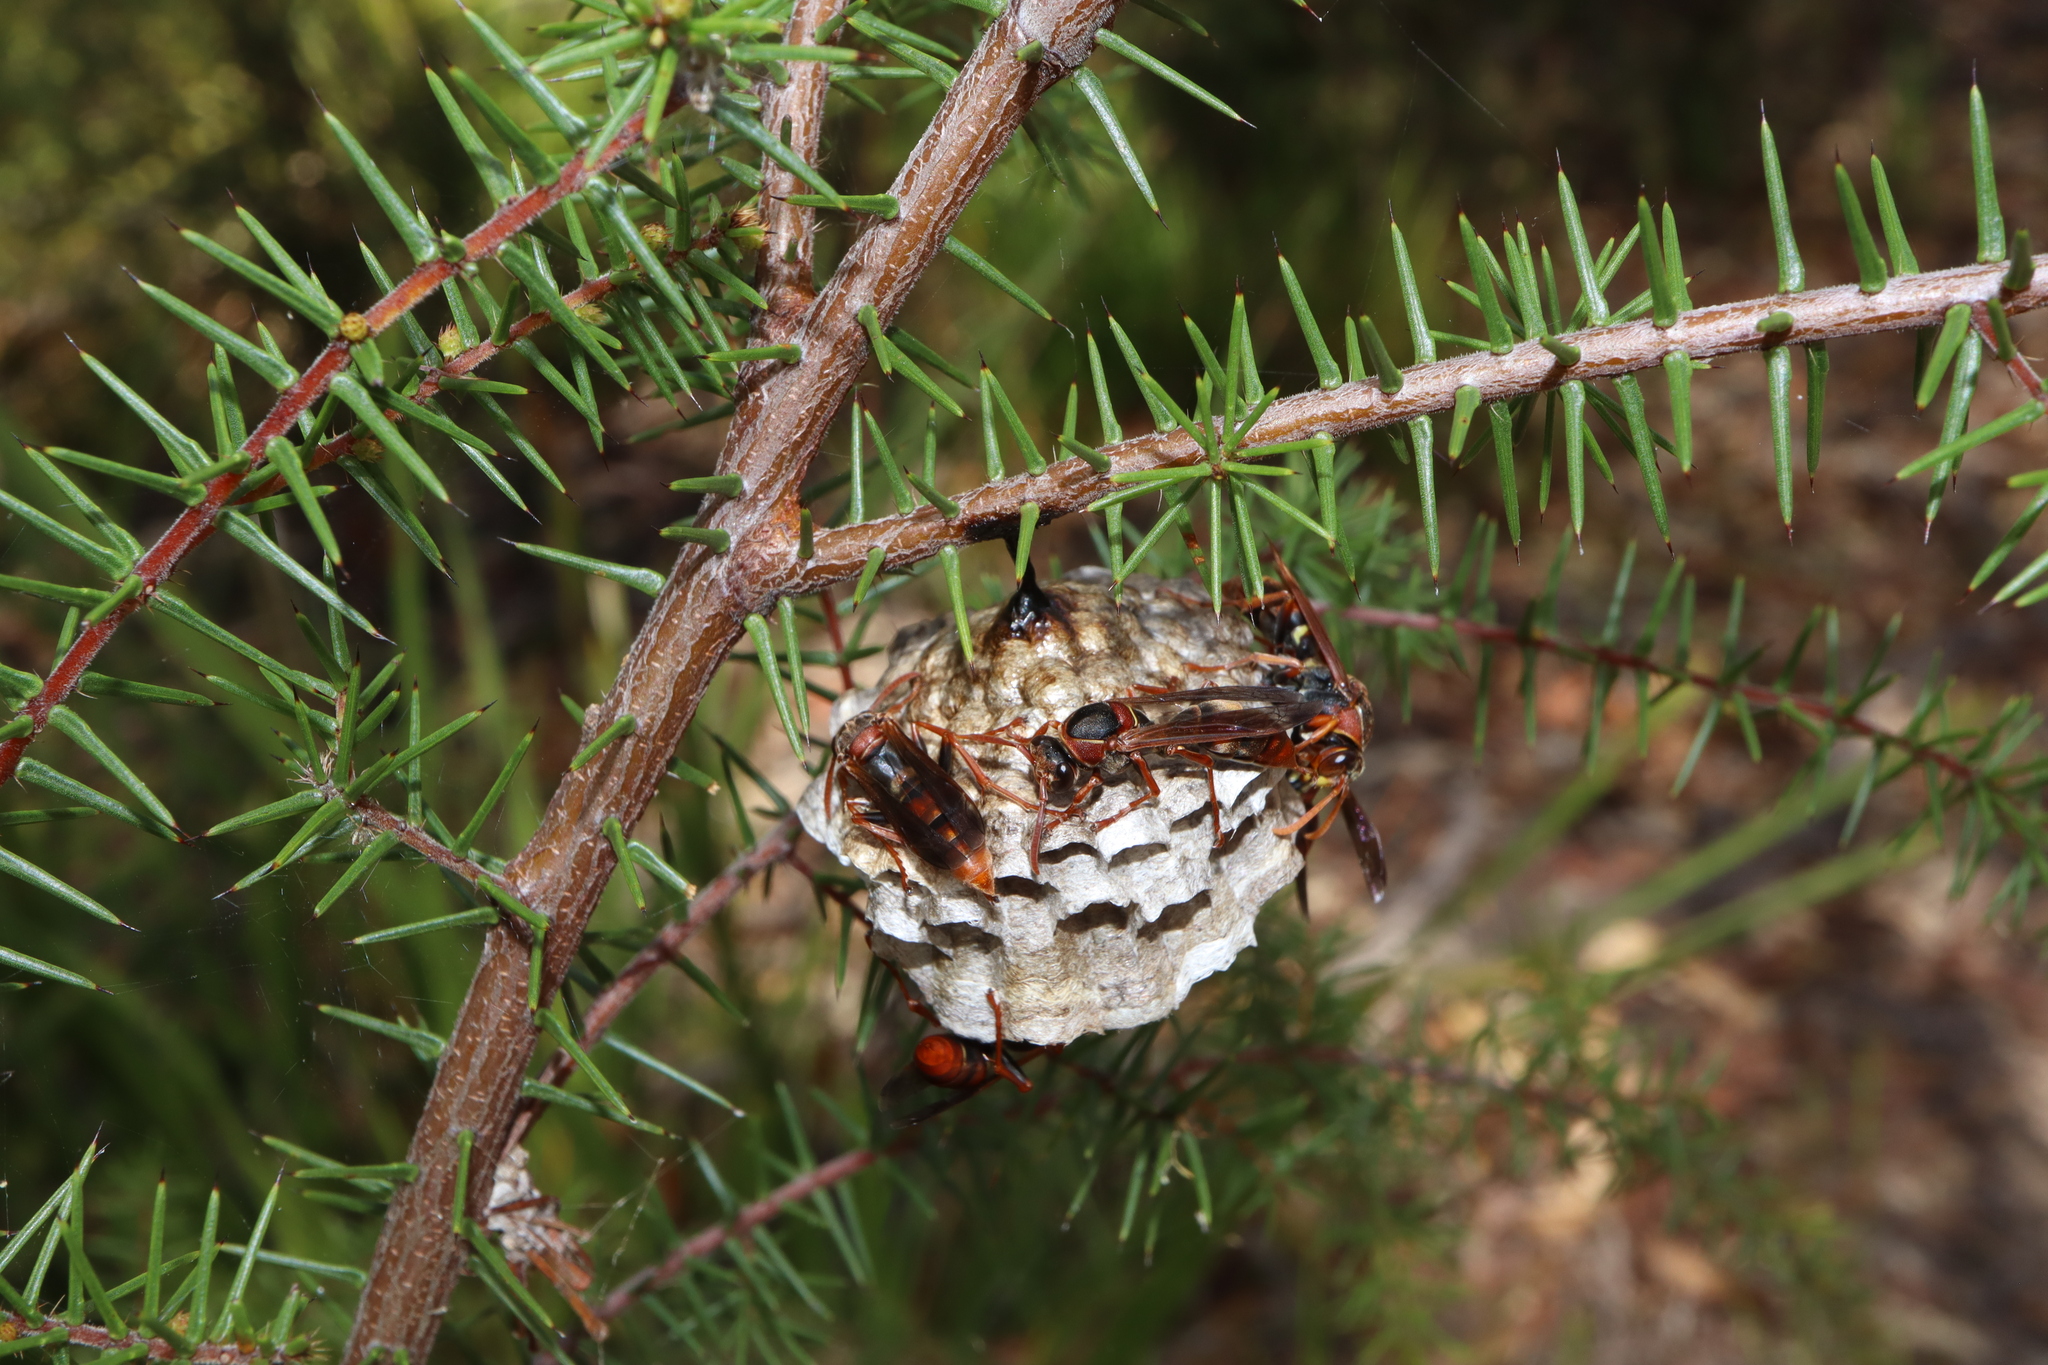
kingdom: Animalia
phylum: Arthropoda
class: Insecta
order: Hymenoptera
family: Eumenidae
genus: Polistes
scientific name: Polistes humilis
